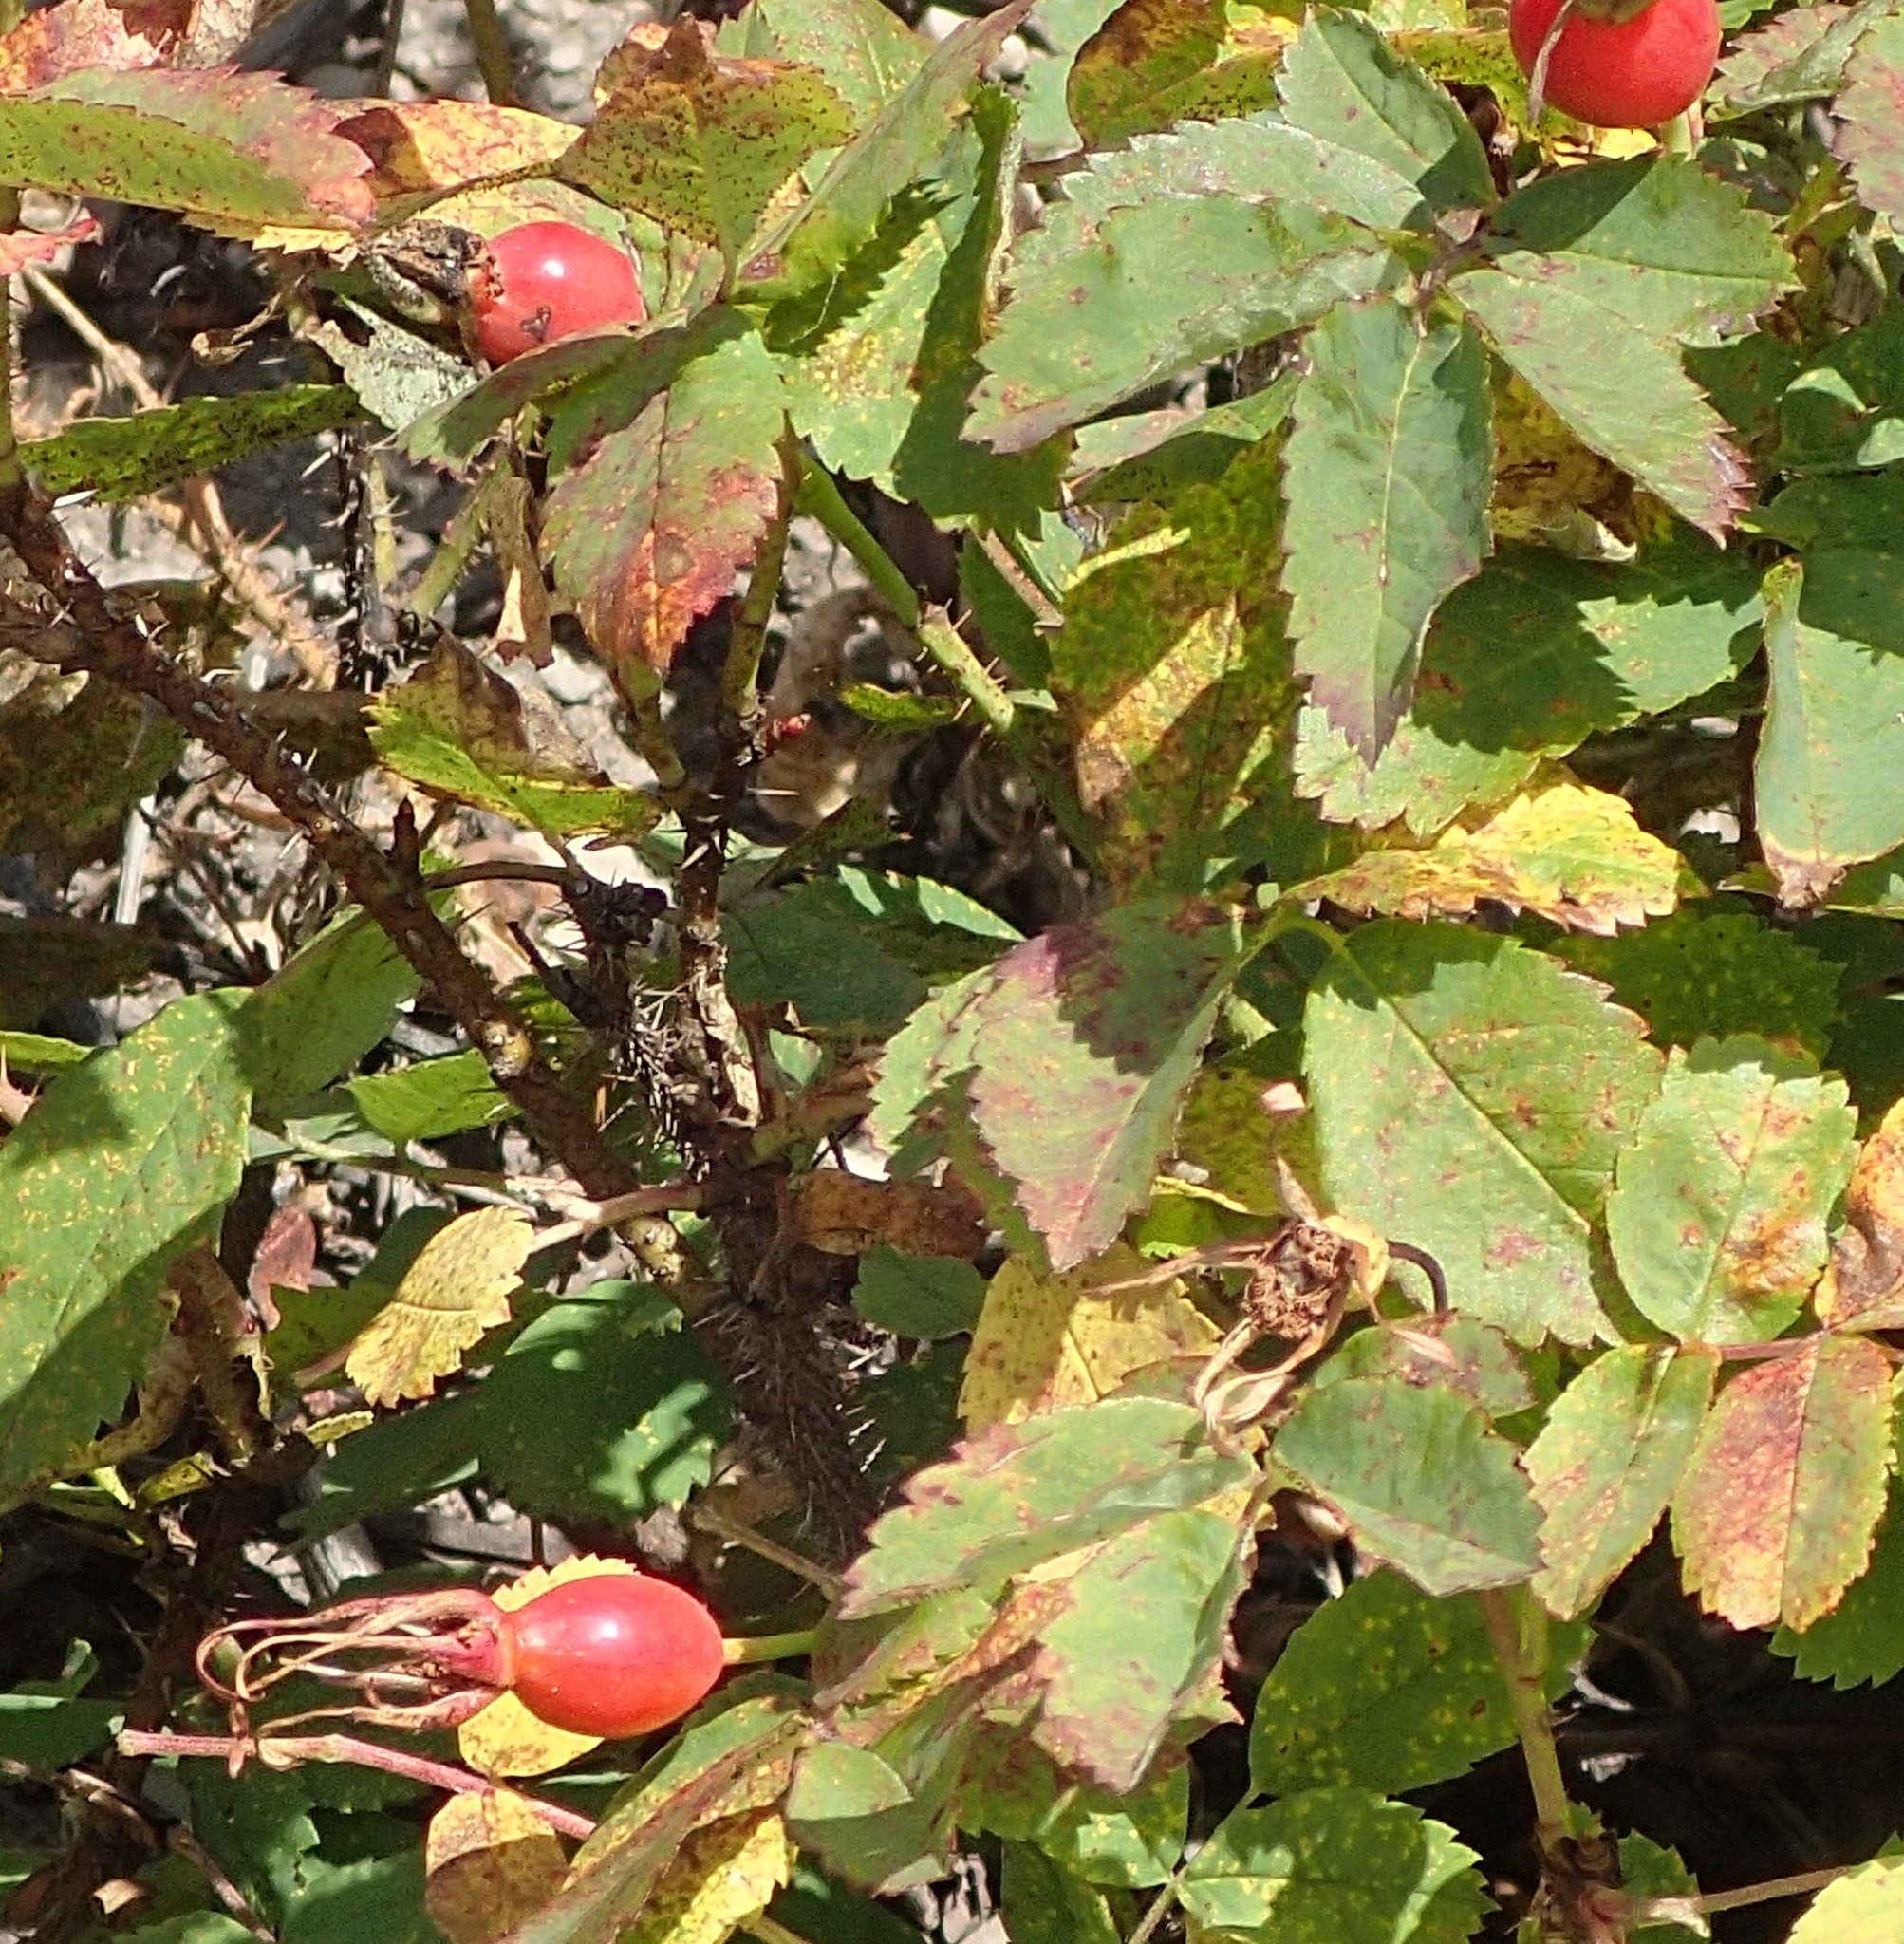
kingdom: Plantae
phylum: Tracheophyta
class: Magnoliopsida
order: Rosales
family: Rosaceae
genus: Rosa
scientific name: Rosa acicularis
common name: Prickly rose
